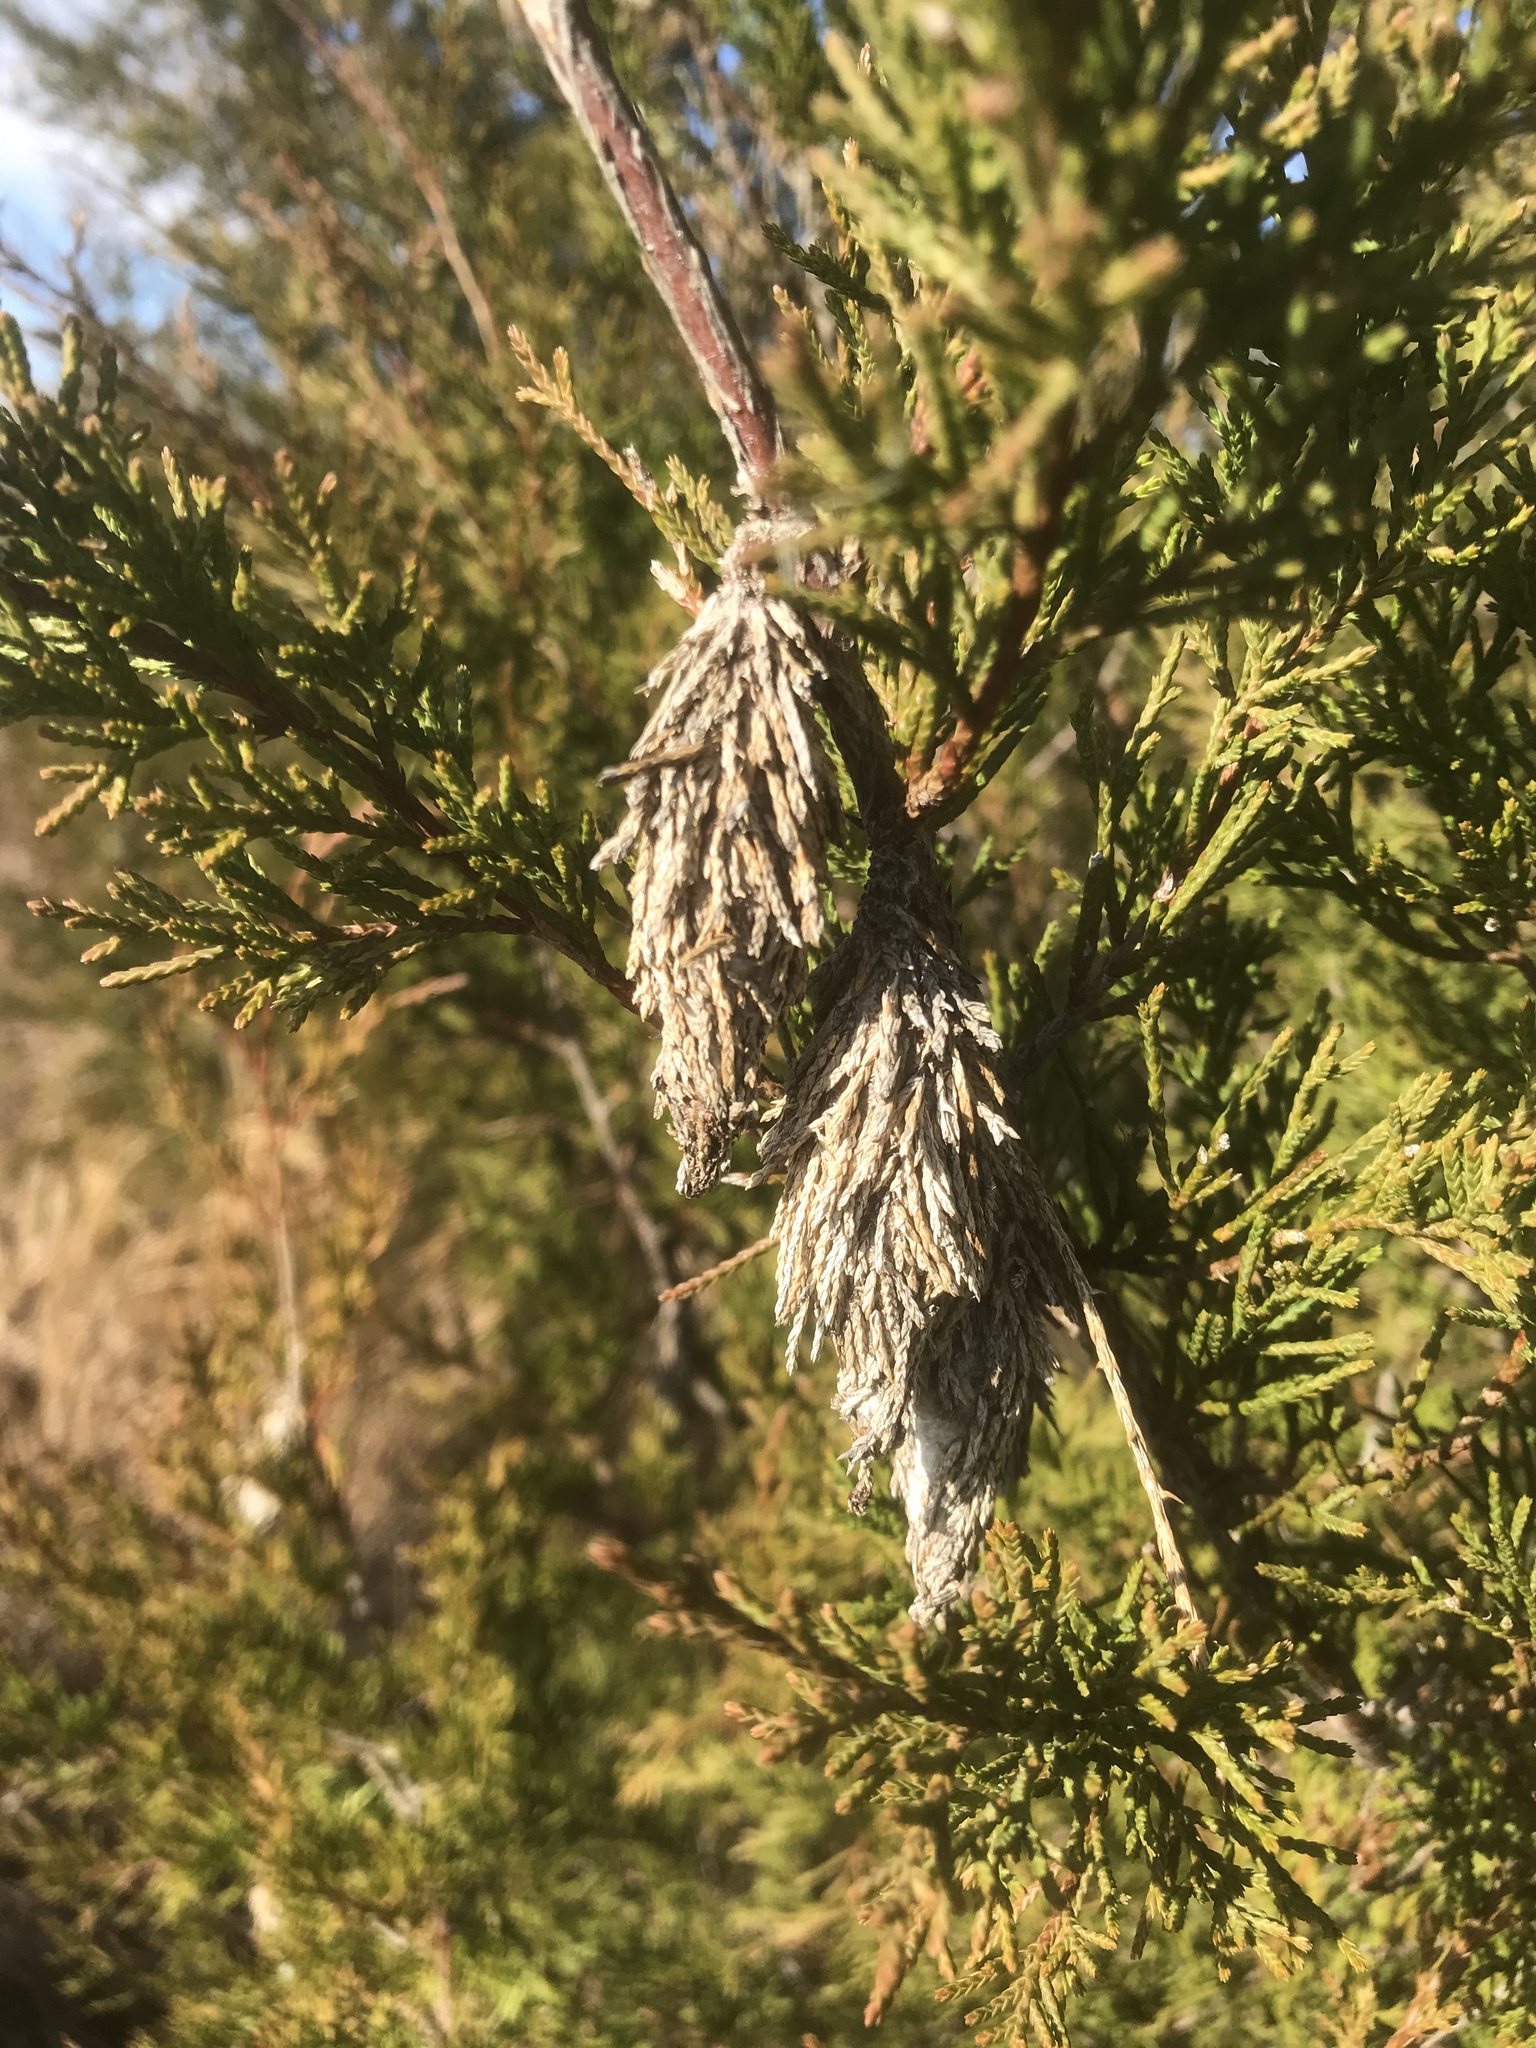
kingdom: Animalia
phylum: Arthropoda
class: Insecta
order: Lepidoptera
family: Psychidae
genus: Thyridopteryx
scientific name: Thyridopteryx ephemeraeformis
